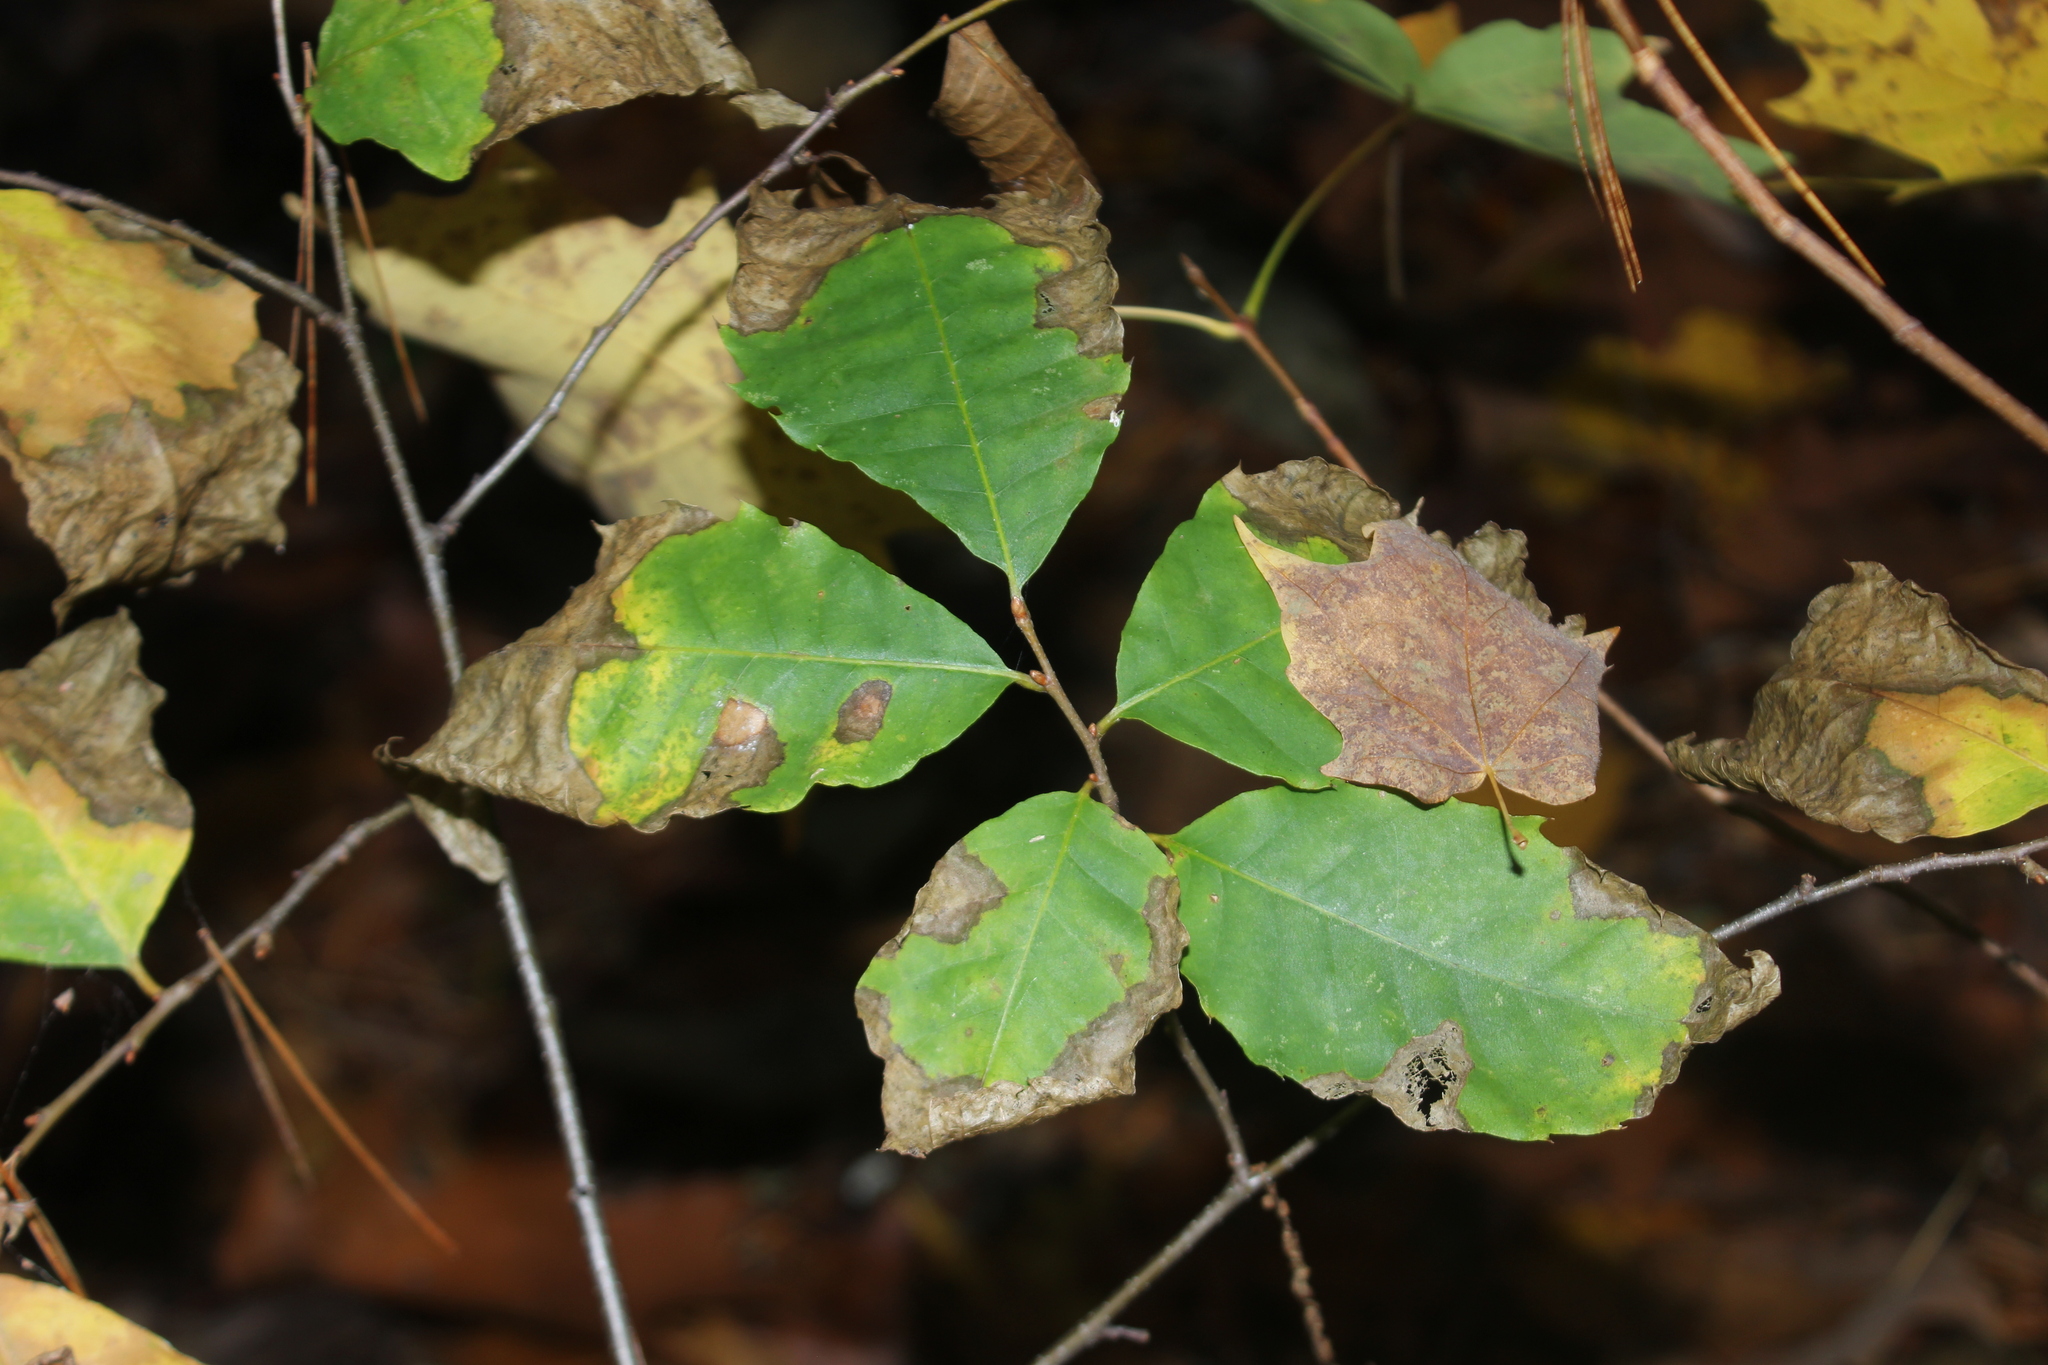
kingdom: Plantae
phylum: Tracheophyta
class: Magnoliopsida
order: Fagales
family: Fagaceae
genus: Castanea
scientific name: Castanea dentata
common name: American chestnut
